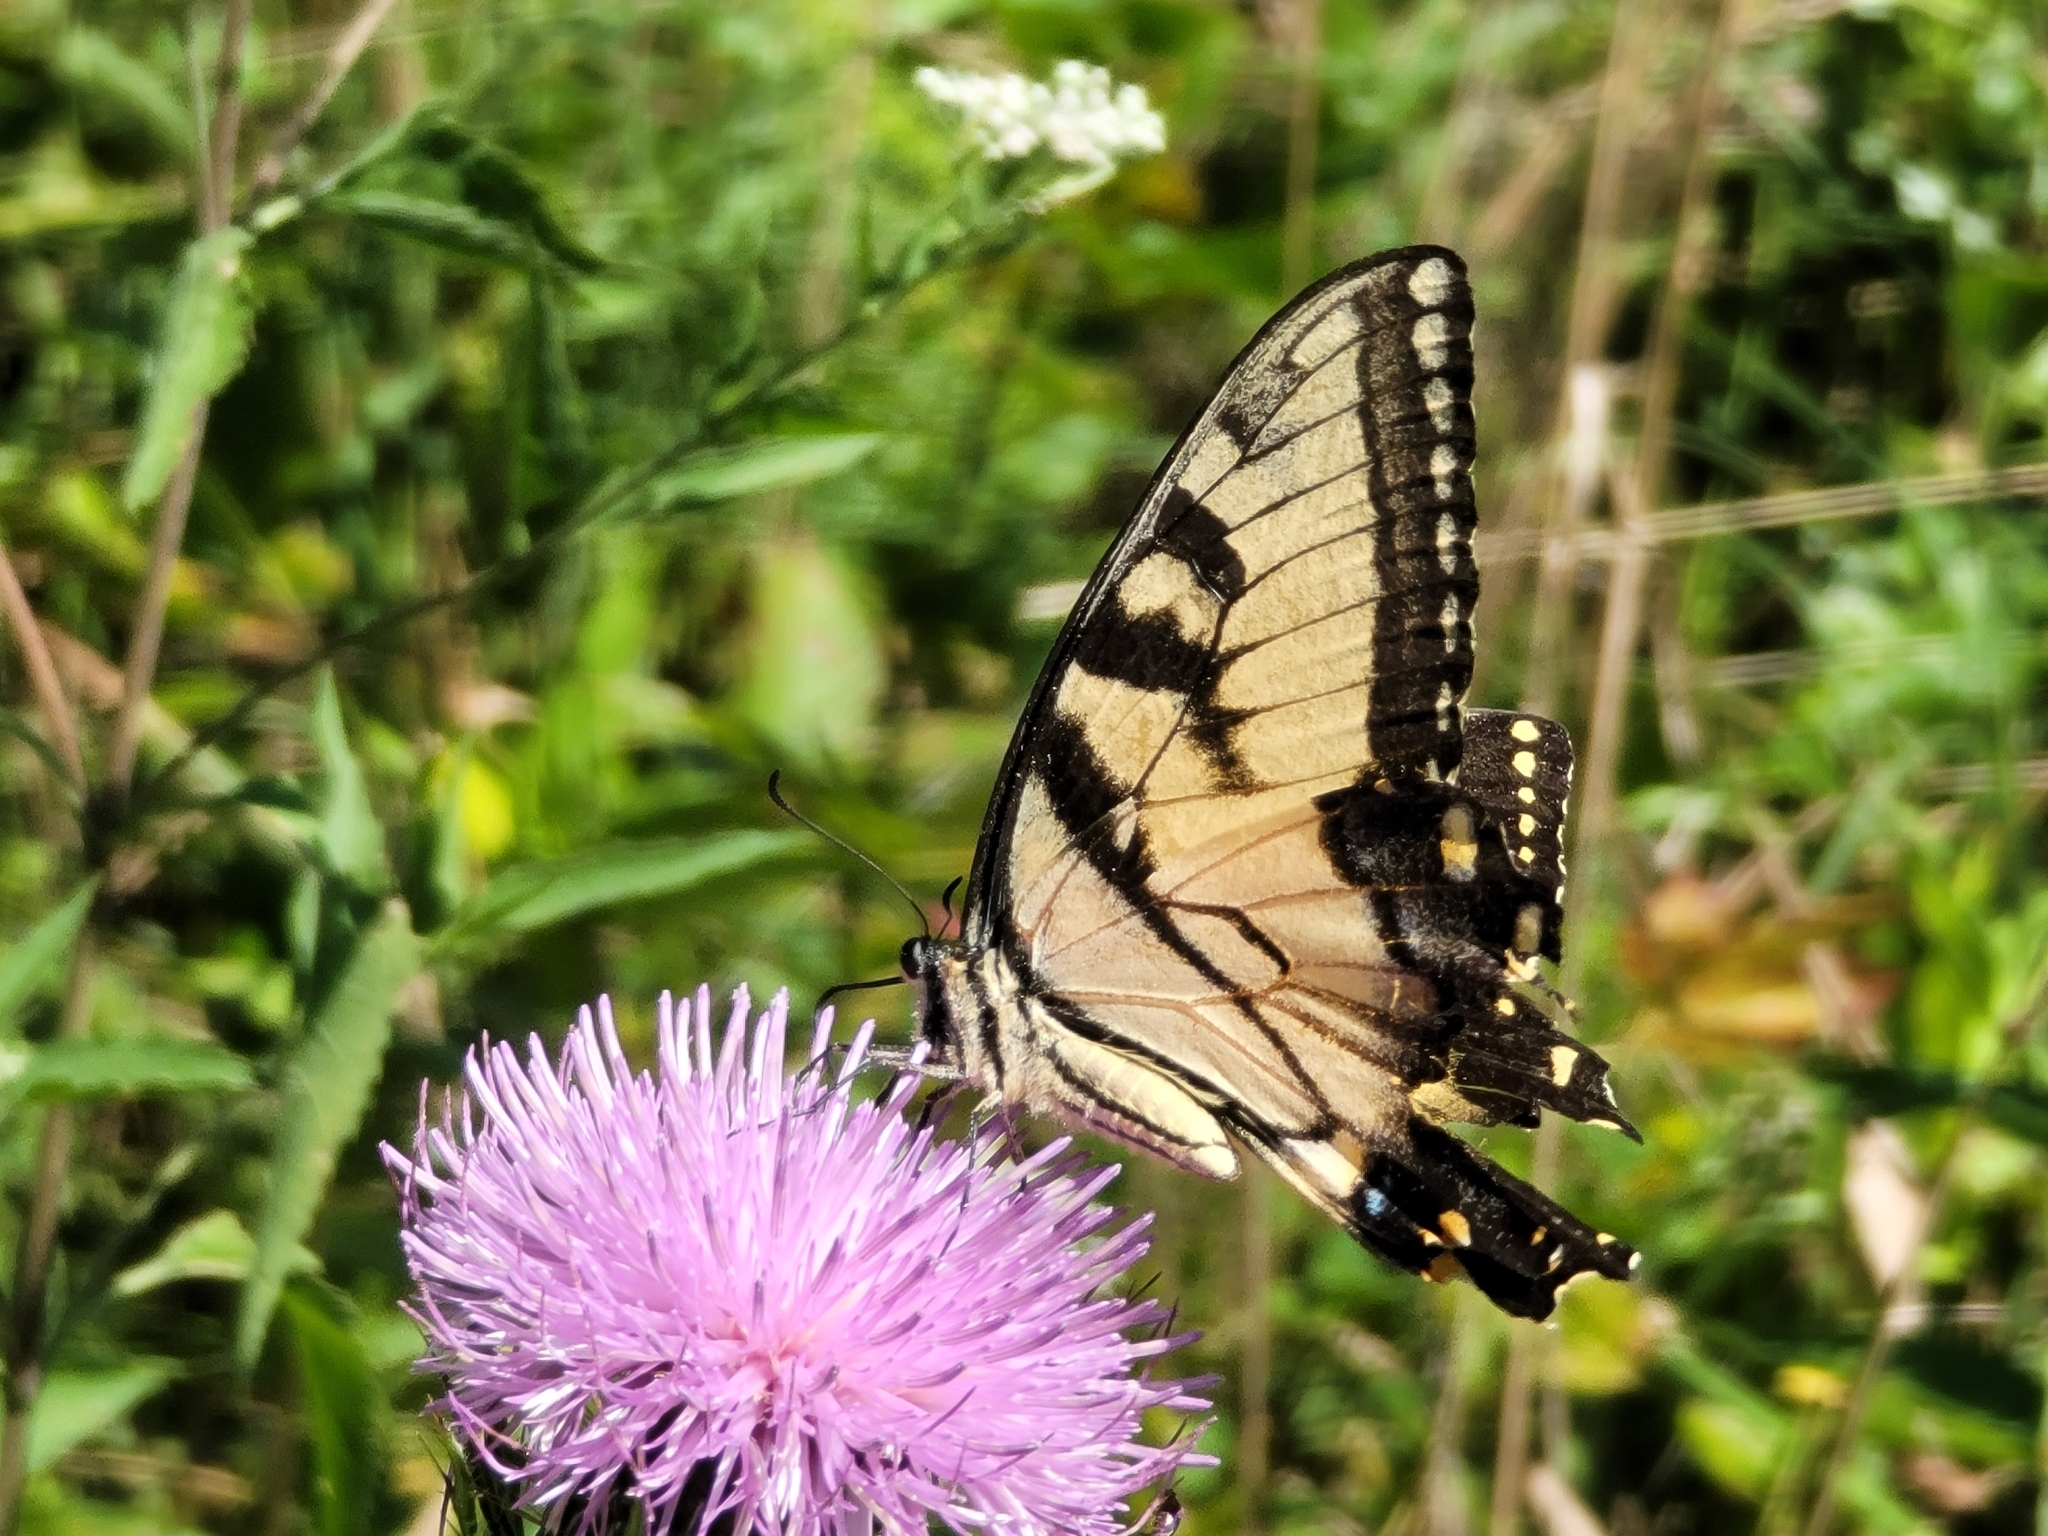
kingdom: Animalia
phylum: Arthropoda
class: Insecta
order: Lepidoptera
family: Papilionidae
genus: Papilio
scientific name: Papilio glaucus
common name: Tiger swallowtail
